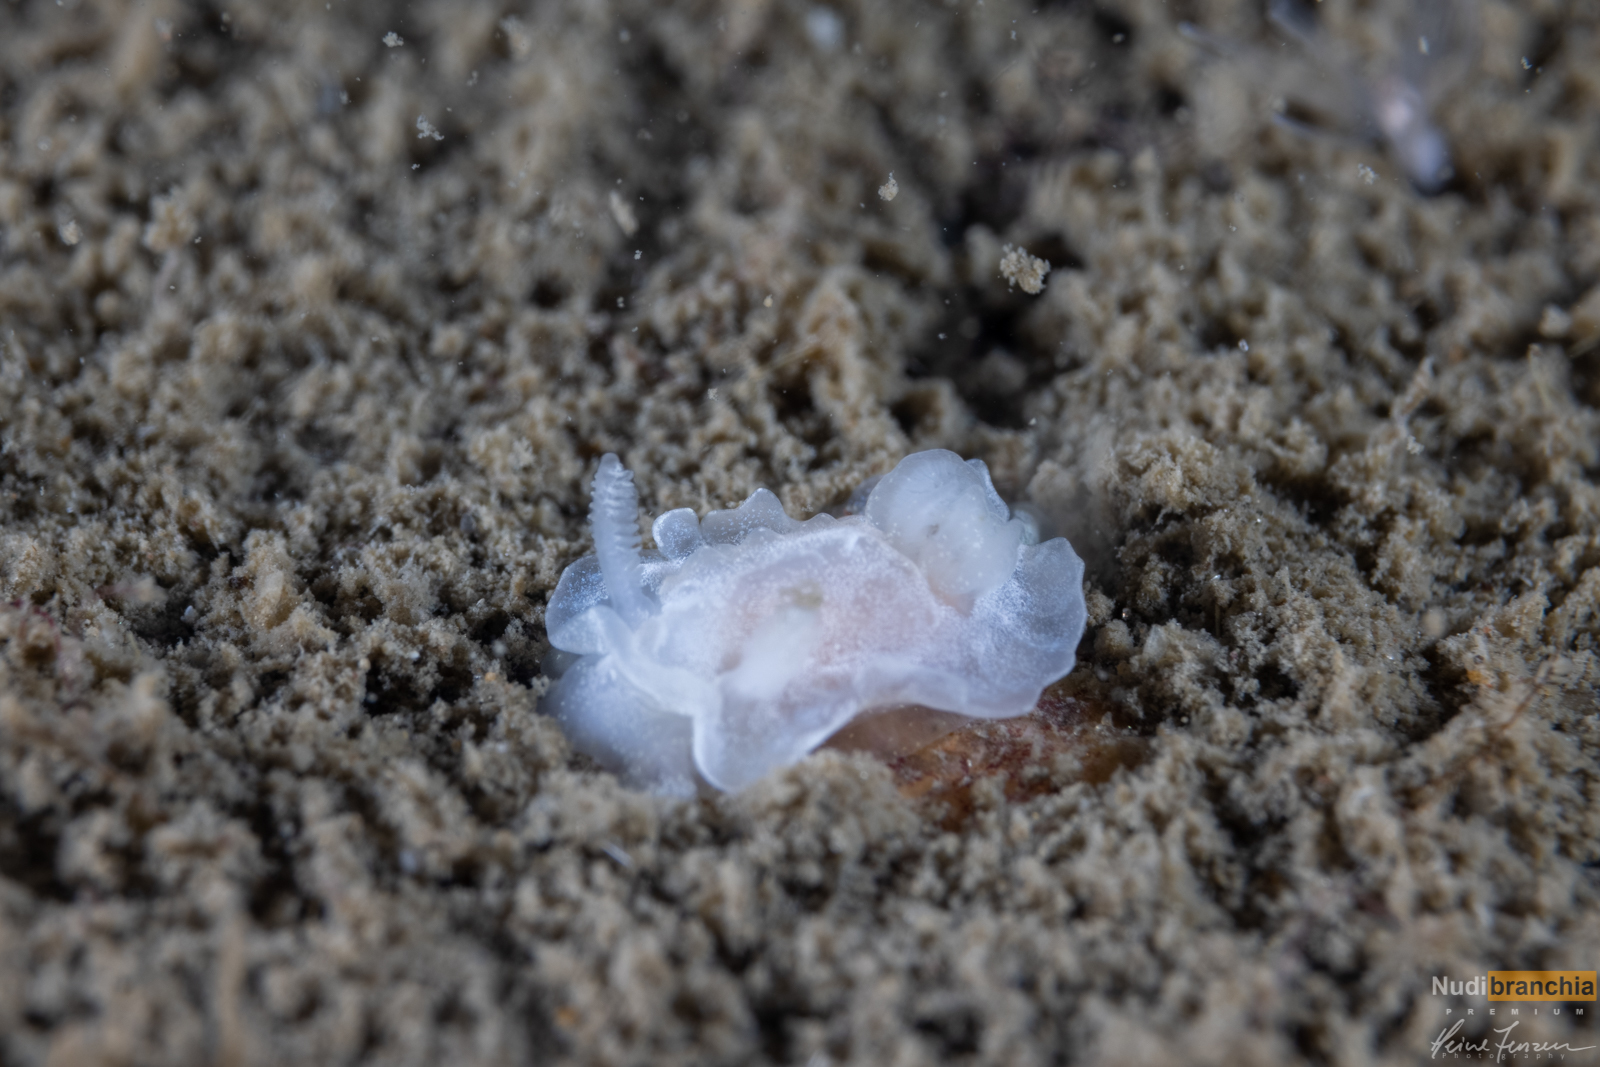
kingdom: Animalia
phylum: Mollusca
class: Gastropoda
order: Nudibranchia
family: Goniodorididae
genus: Okenia
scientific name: Okenia
